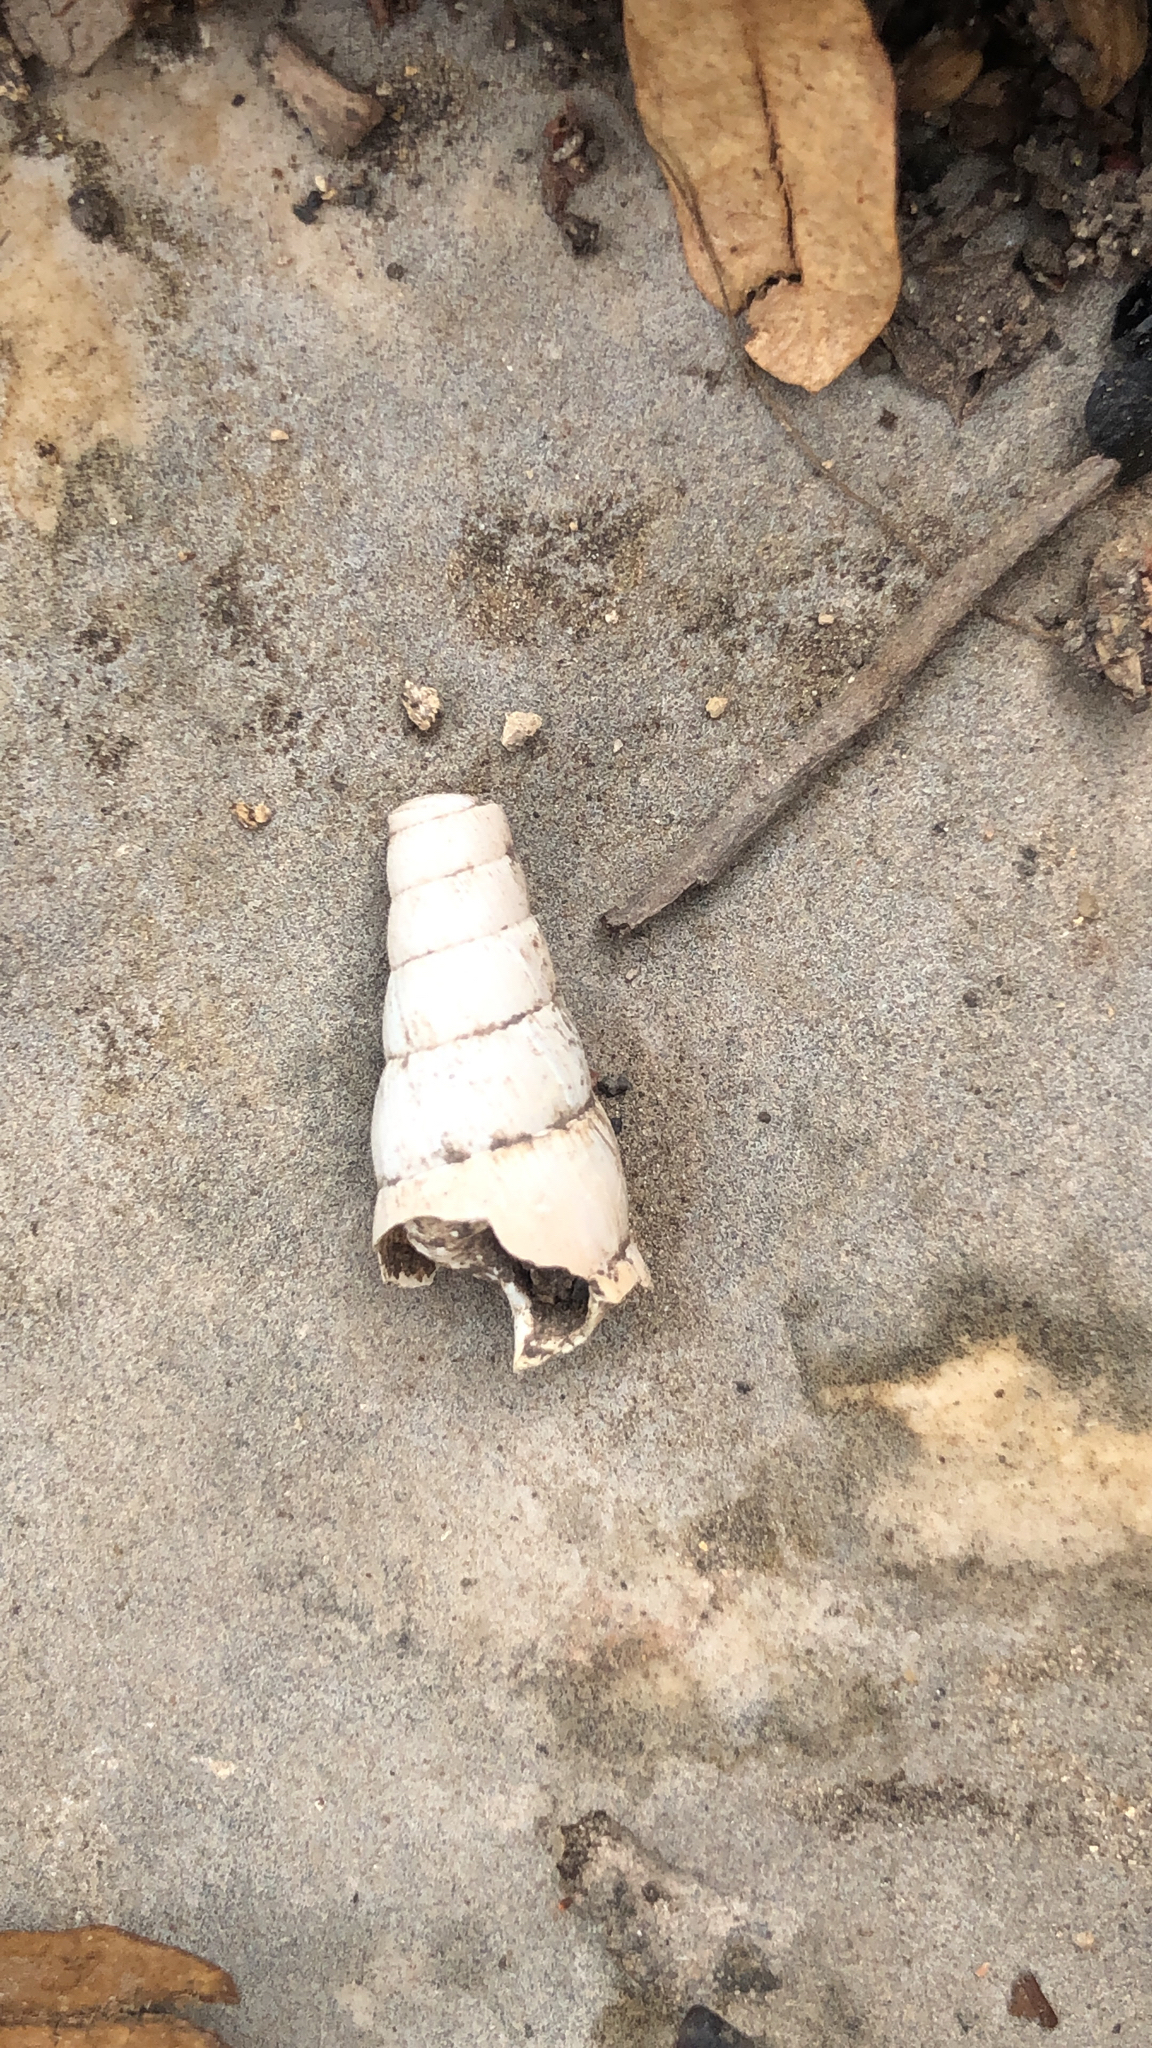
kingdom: Animalia
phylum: Mollusca
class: Gastropoda
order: Stylommatophora
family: Achatinidae
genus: Rumina
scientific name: Rumina decollata
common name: Decollate snail
